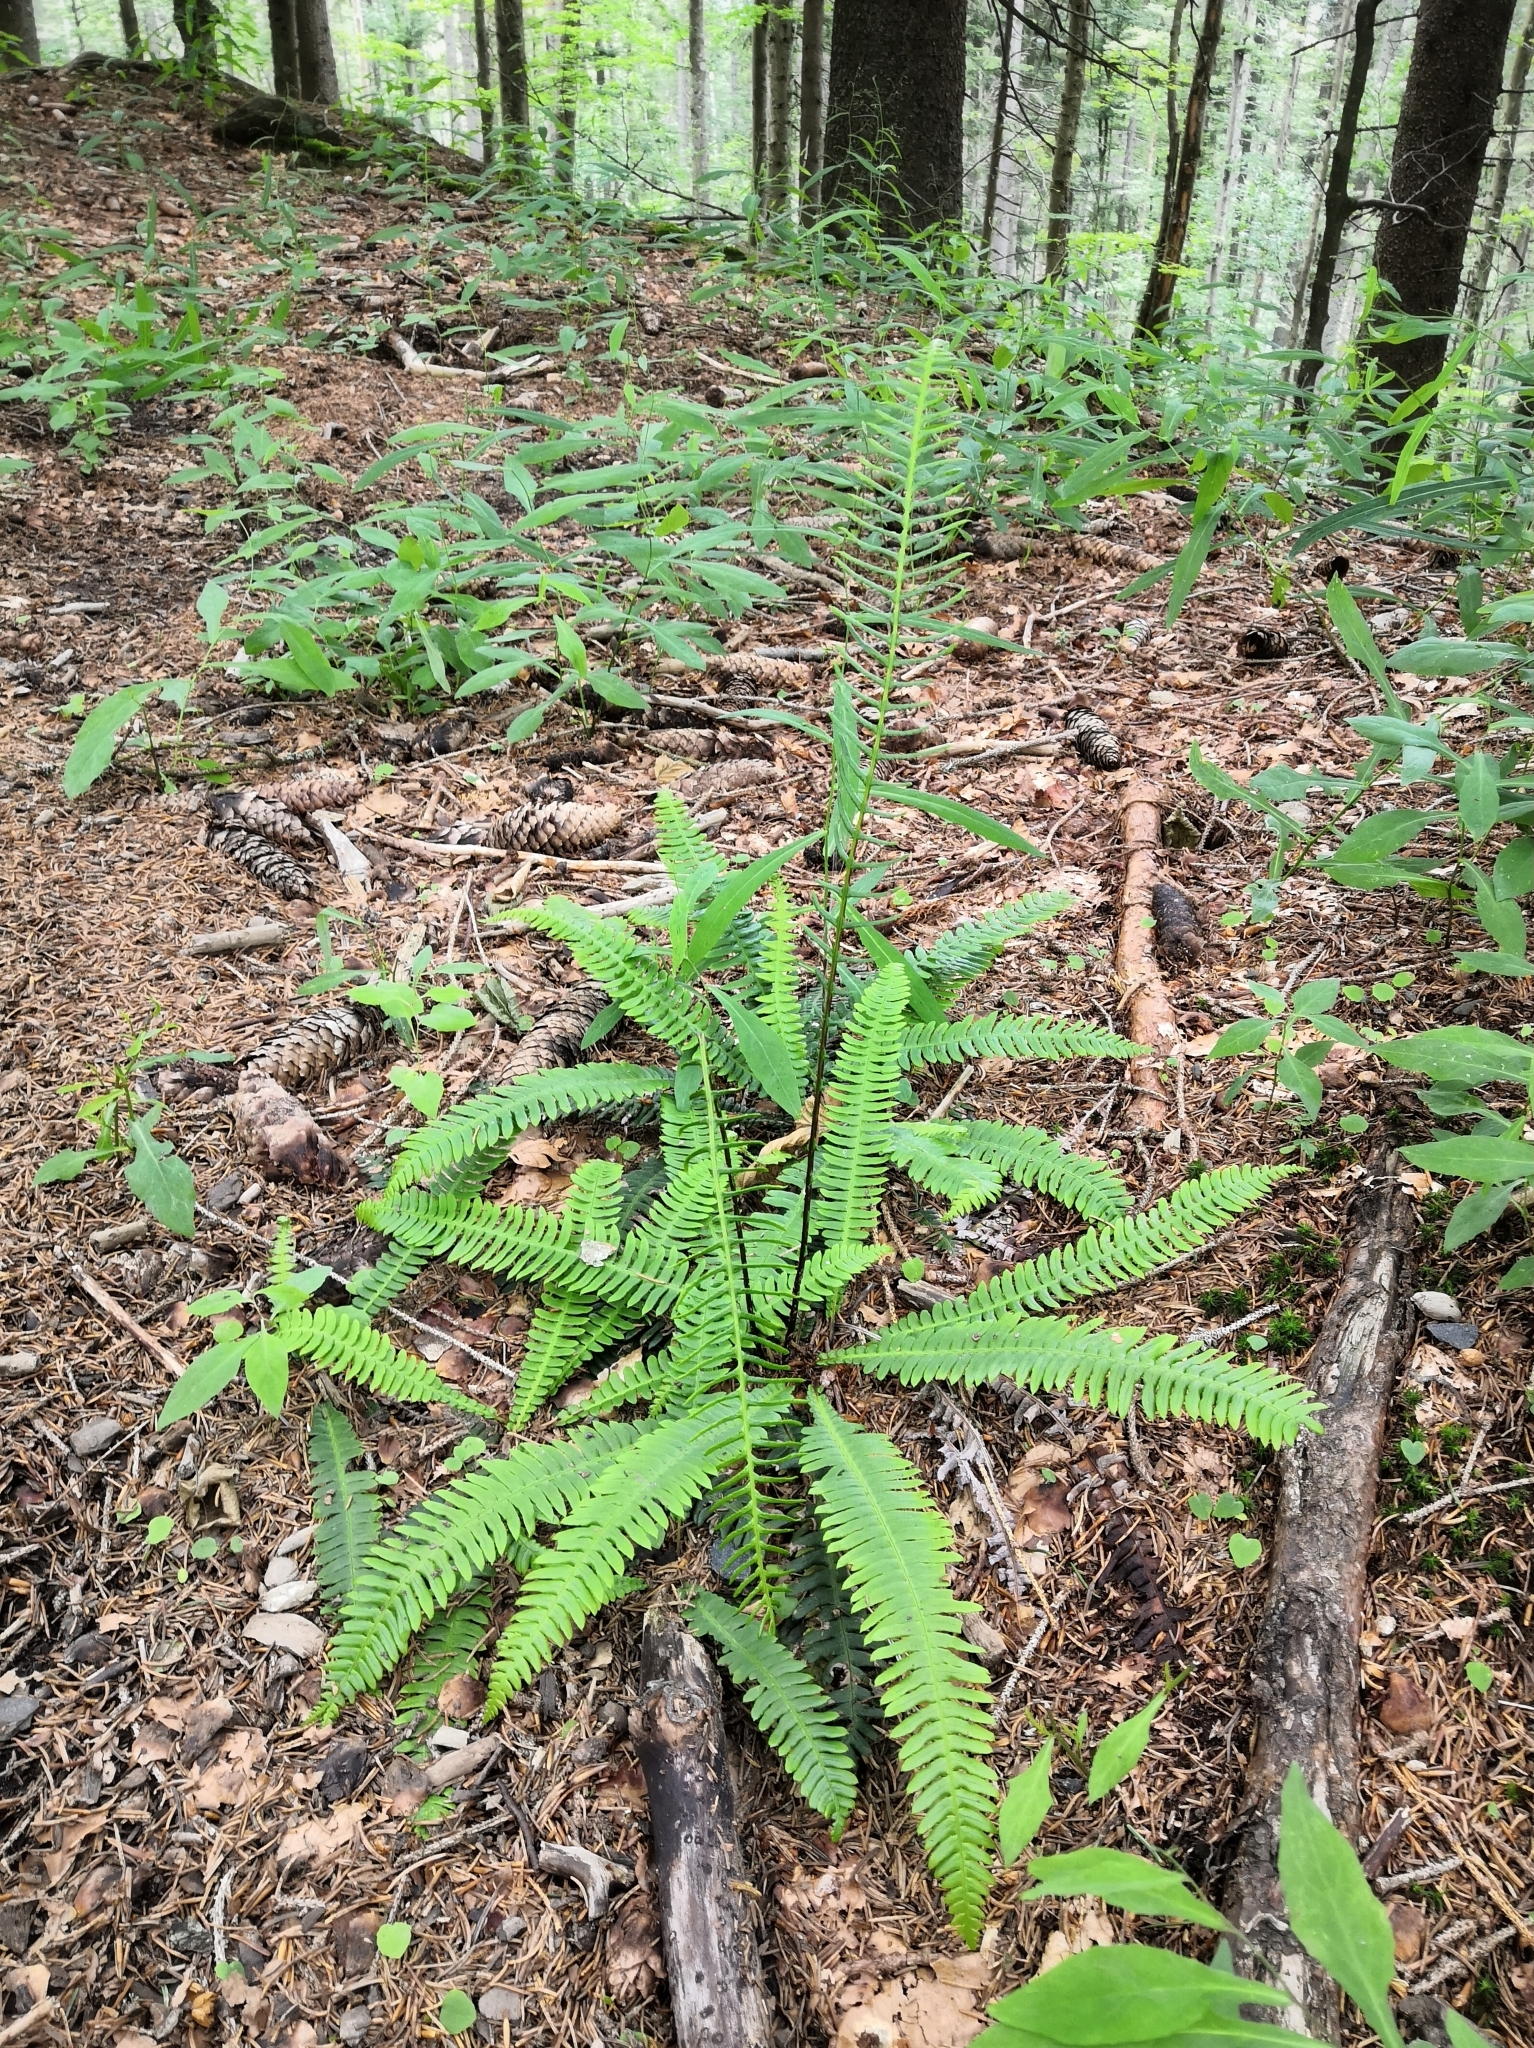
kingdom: Plantae
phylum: Tracheophyta
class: Polypodiopsida
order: Polypodiales
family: Blechnaceae
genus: Struthiopteris
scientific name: Struthiopteris spicant
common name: Deer fern
